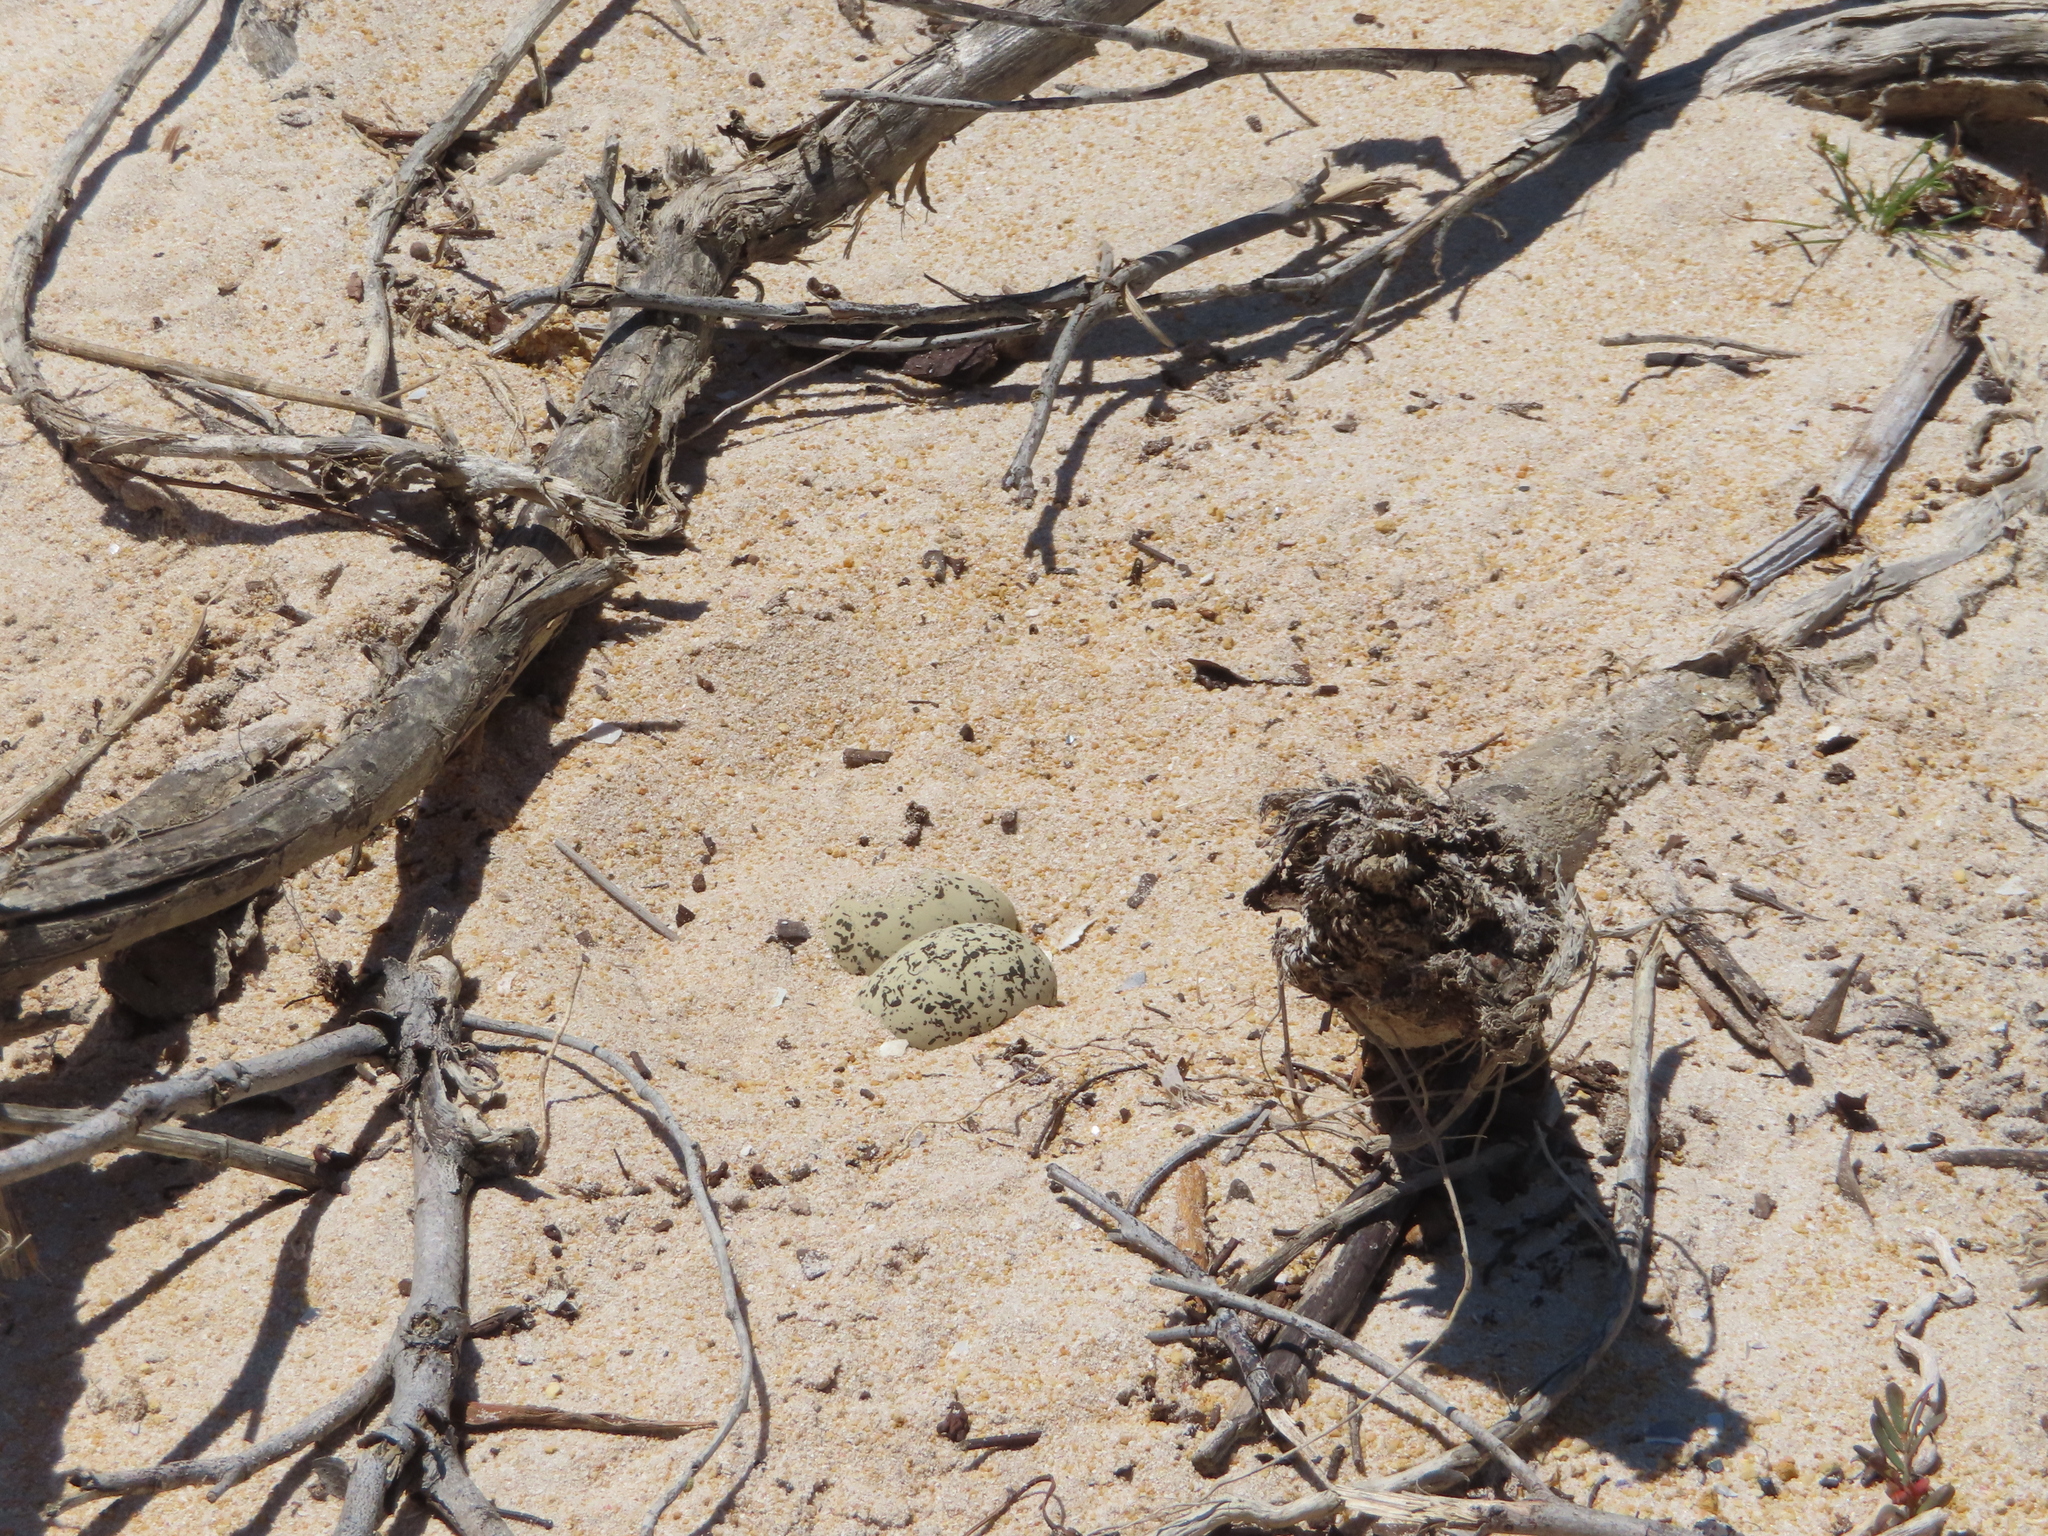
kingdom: Animalia
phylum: Chordata
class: Aves
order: Charadriiformes
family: Charadriidae
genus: Anarhynchus
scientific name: Anarhynchus
